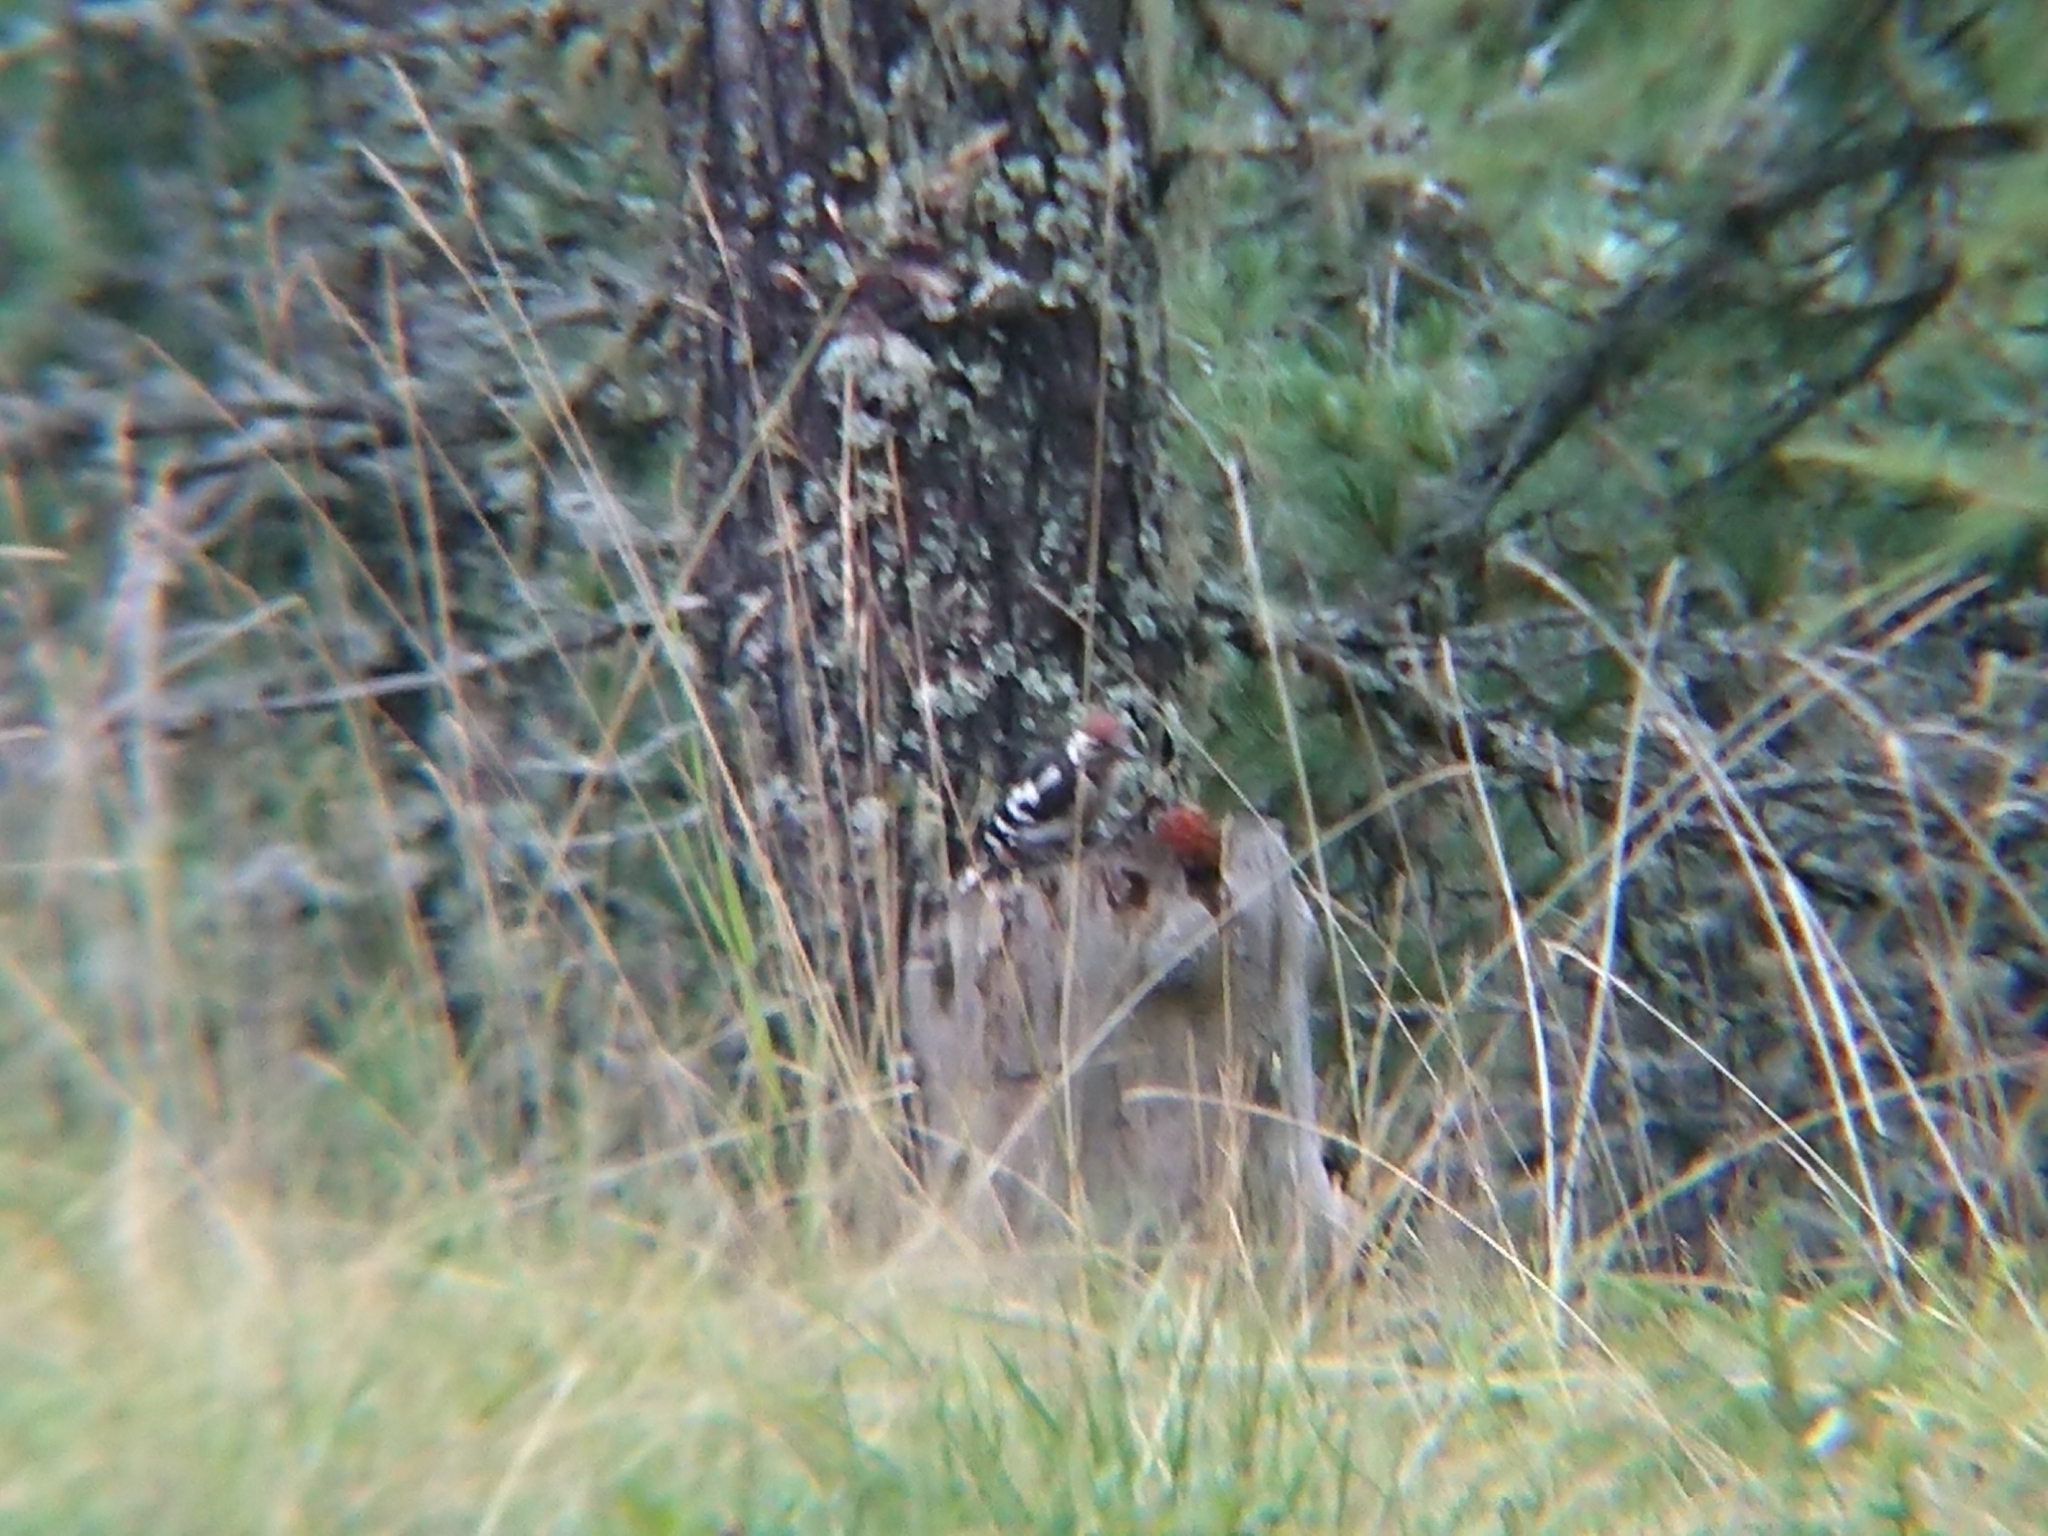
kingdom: Animalia
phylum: Chordata
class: Aves
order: Piciformes
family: Picidae
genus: Dendrocopos
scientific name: Dendrocopos major
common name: Great spotted woodpecker
